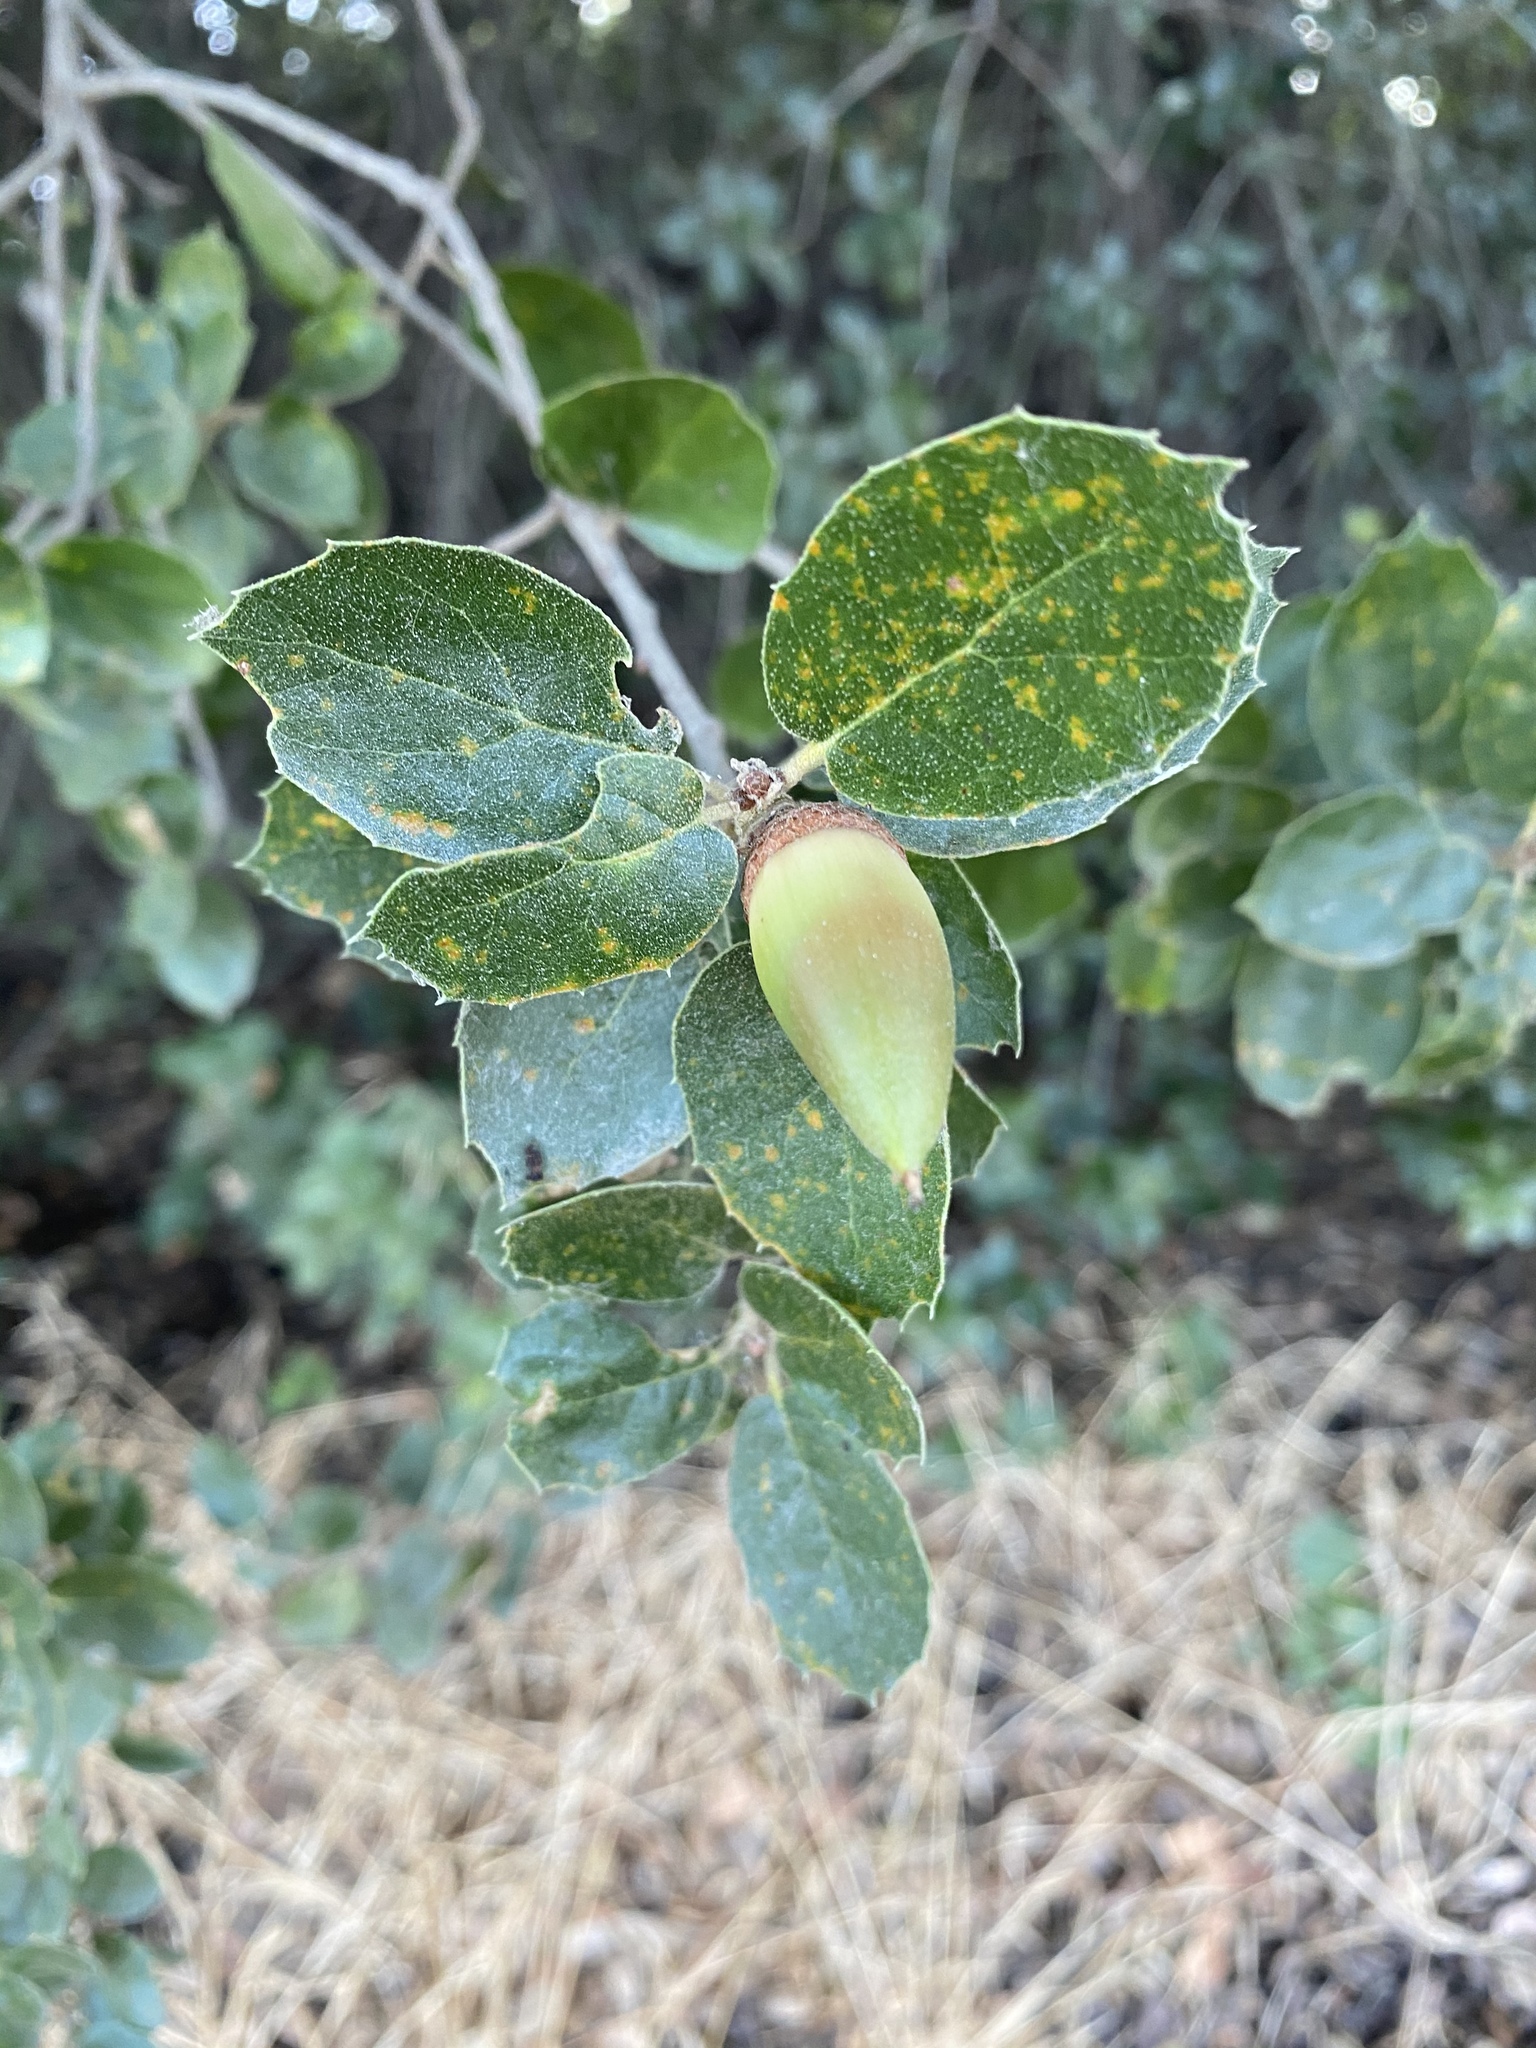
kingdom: Plantae
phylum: Tracheophyta
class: Magnoliopsida
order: Fagales
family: Fagaceae
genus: Quercus
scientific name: Quercus agrifolia
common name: California live oak
